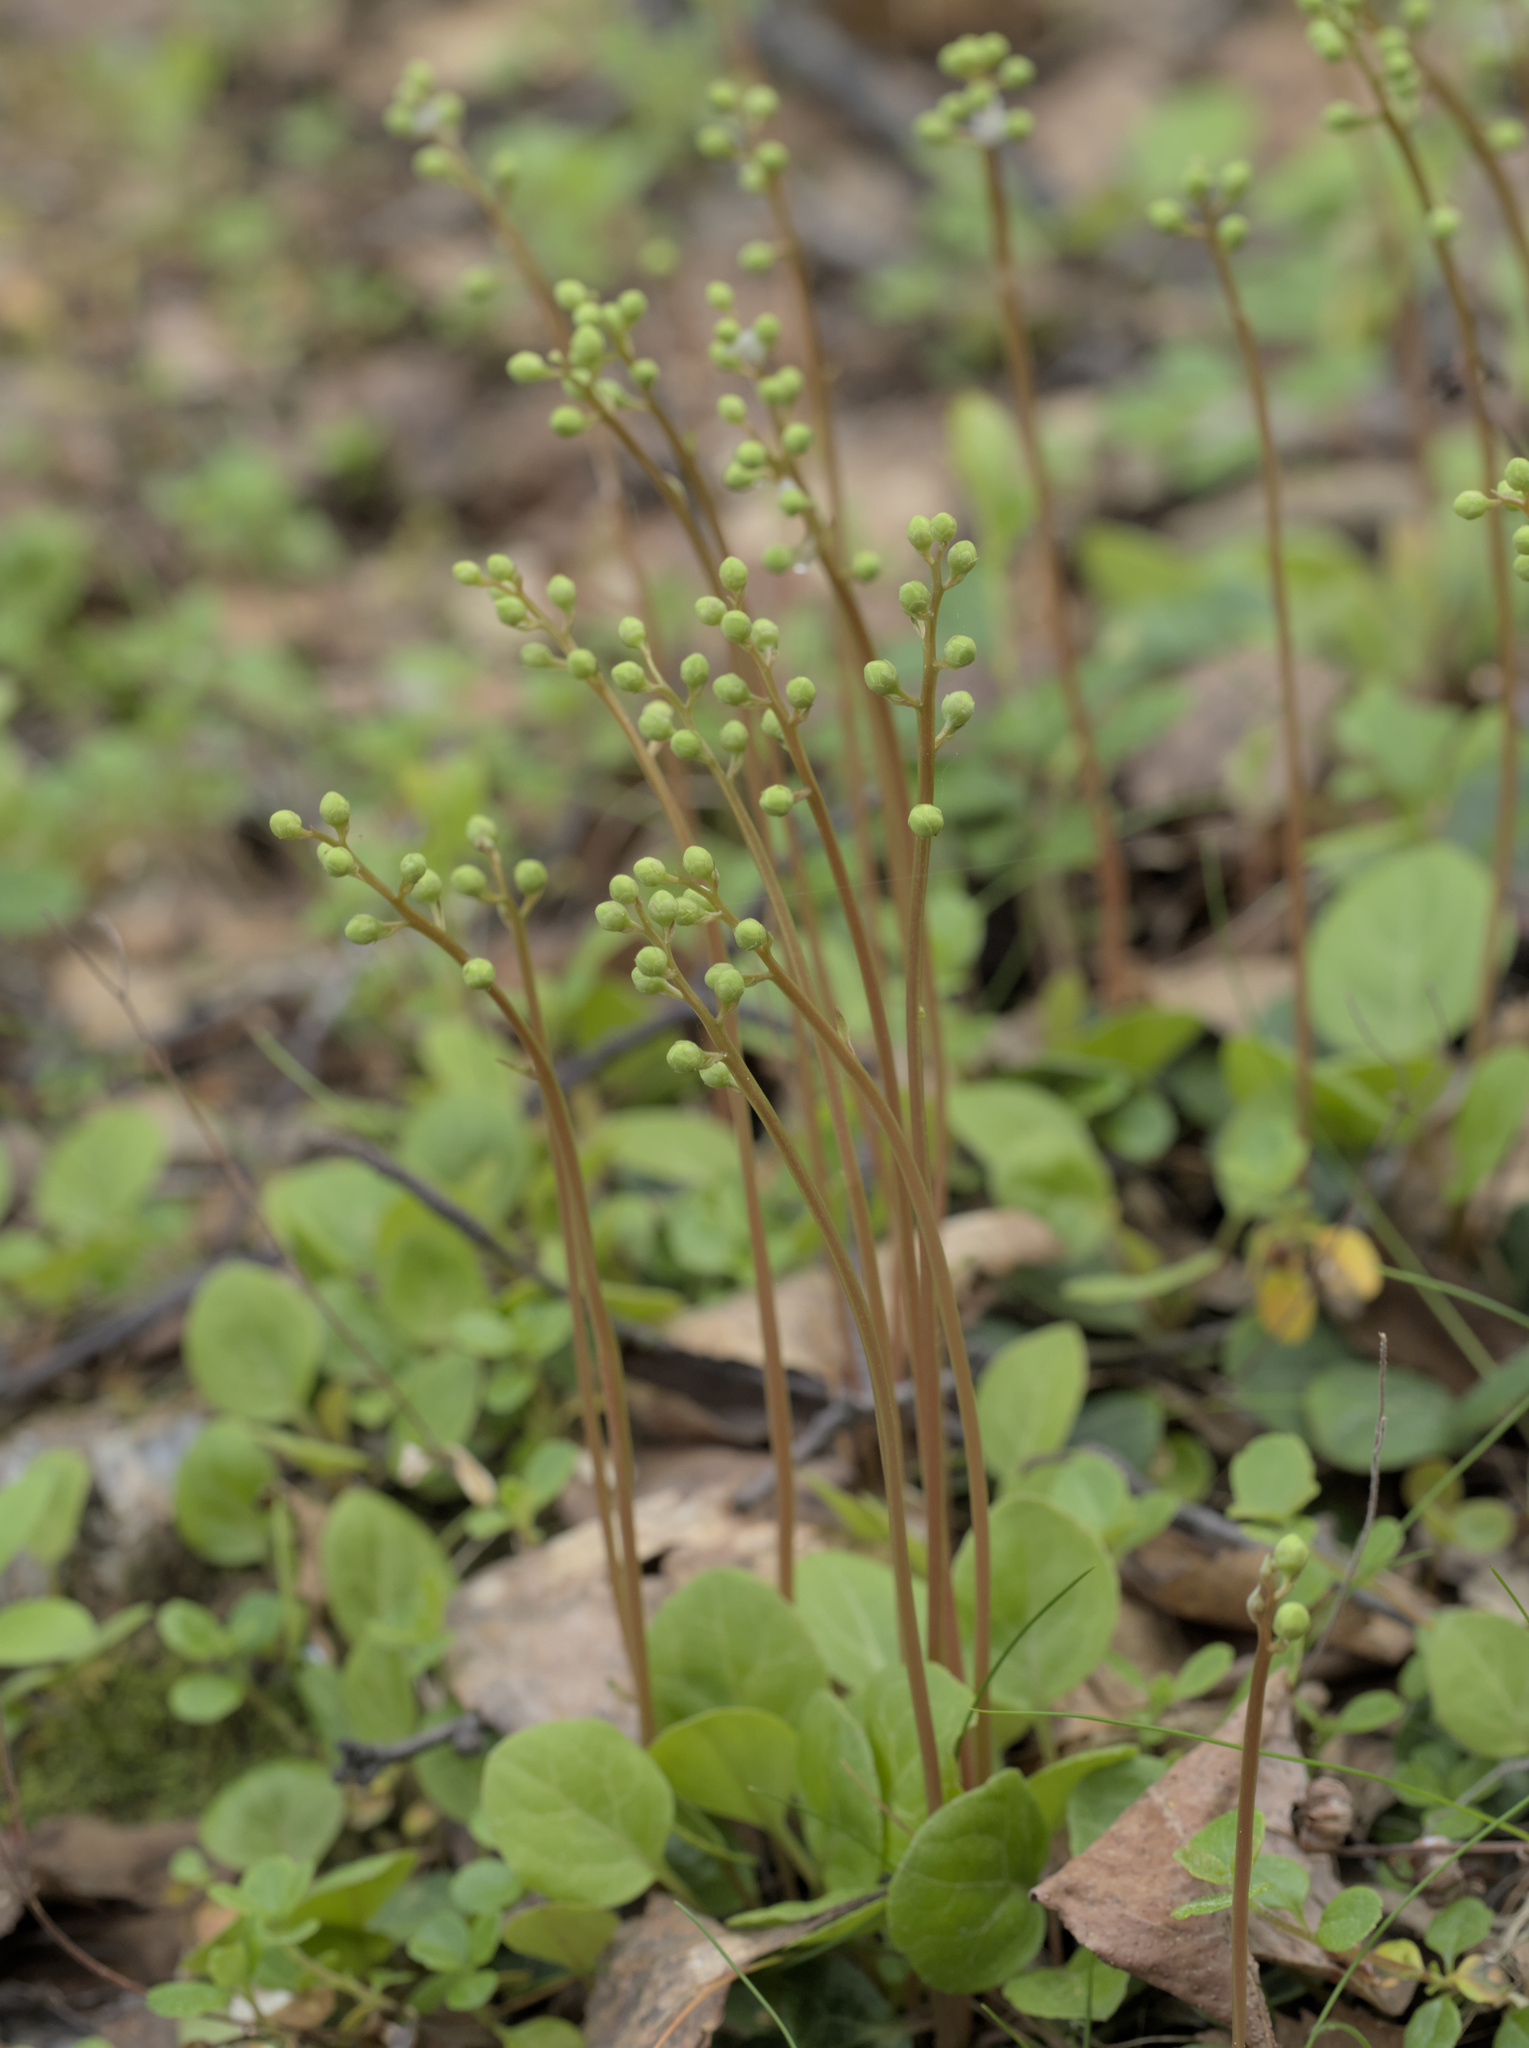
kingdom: Plantae
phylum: Tracheophyta
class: Magnoliopsida
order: Ericales
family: Ericaceae
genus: Pyrola
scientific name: Pyrola chlorantha
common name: Green wintergreen
